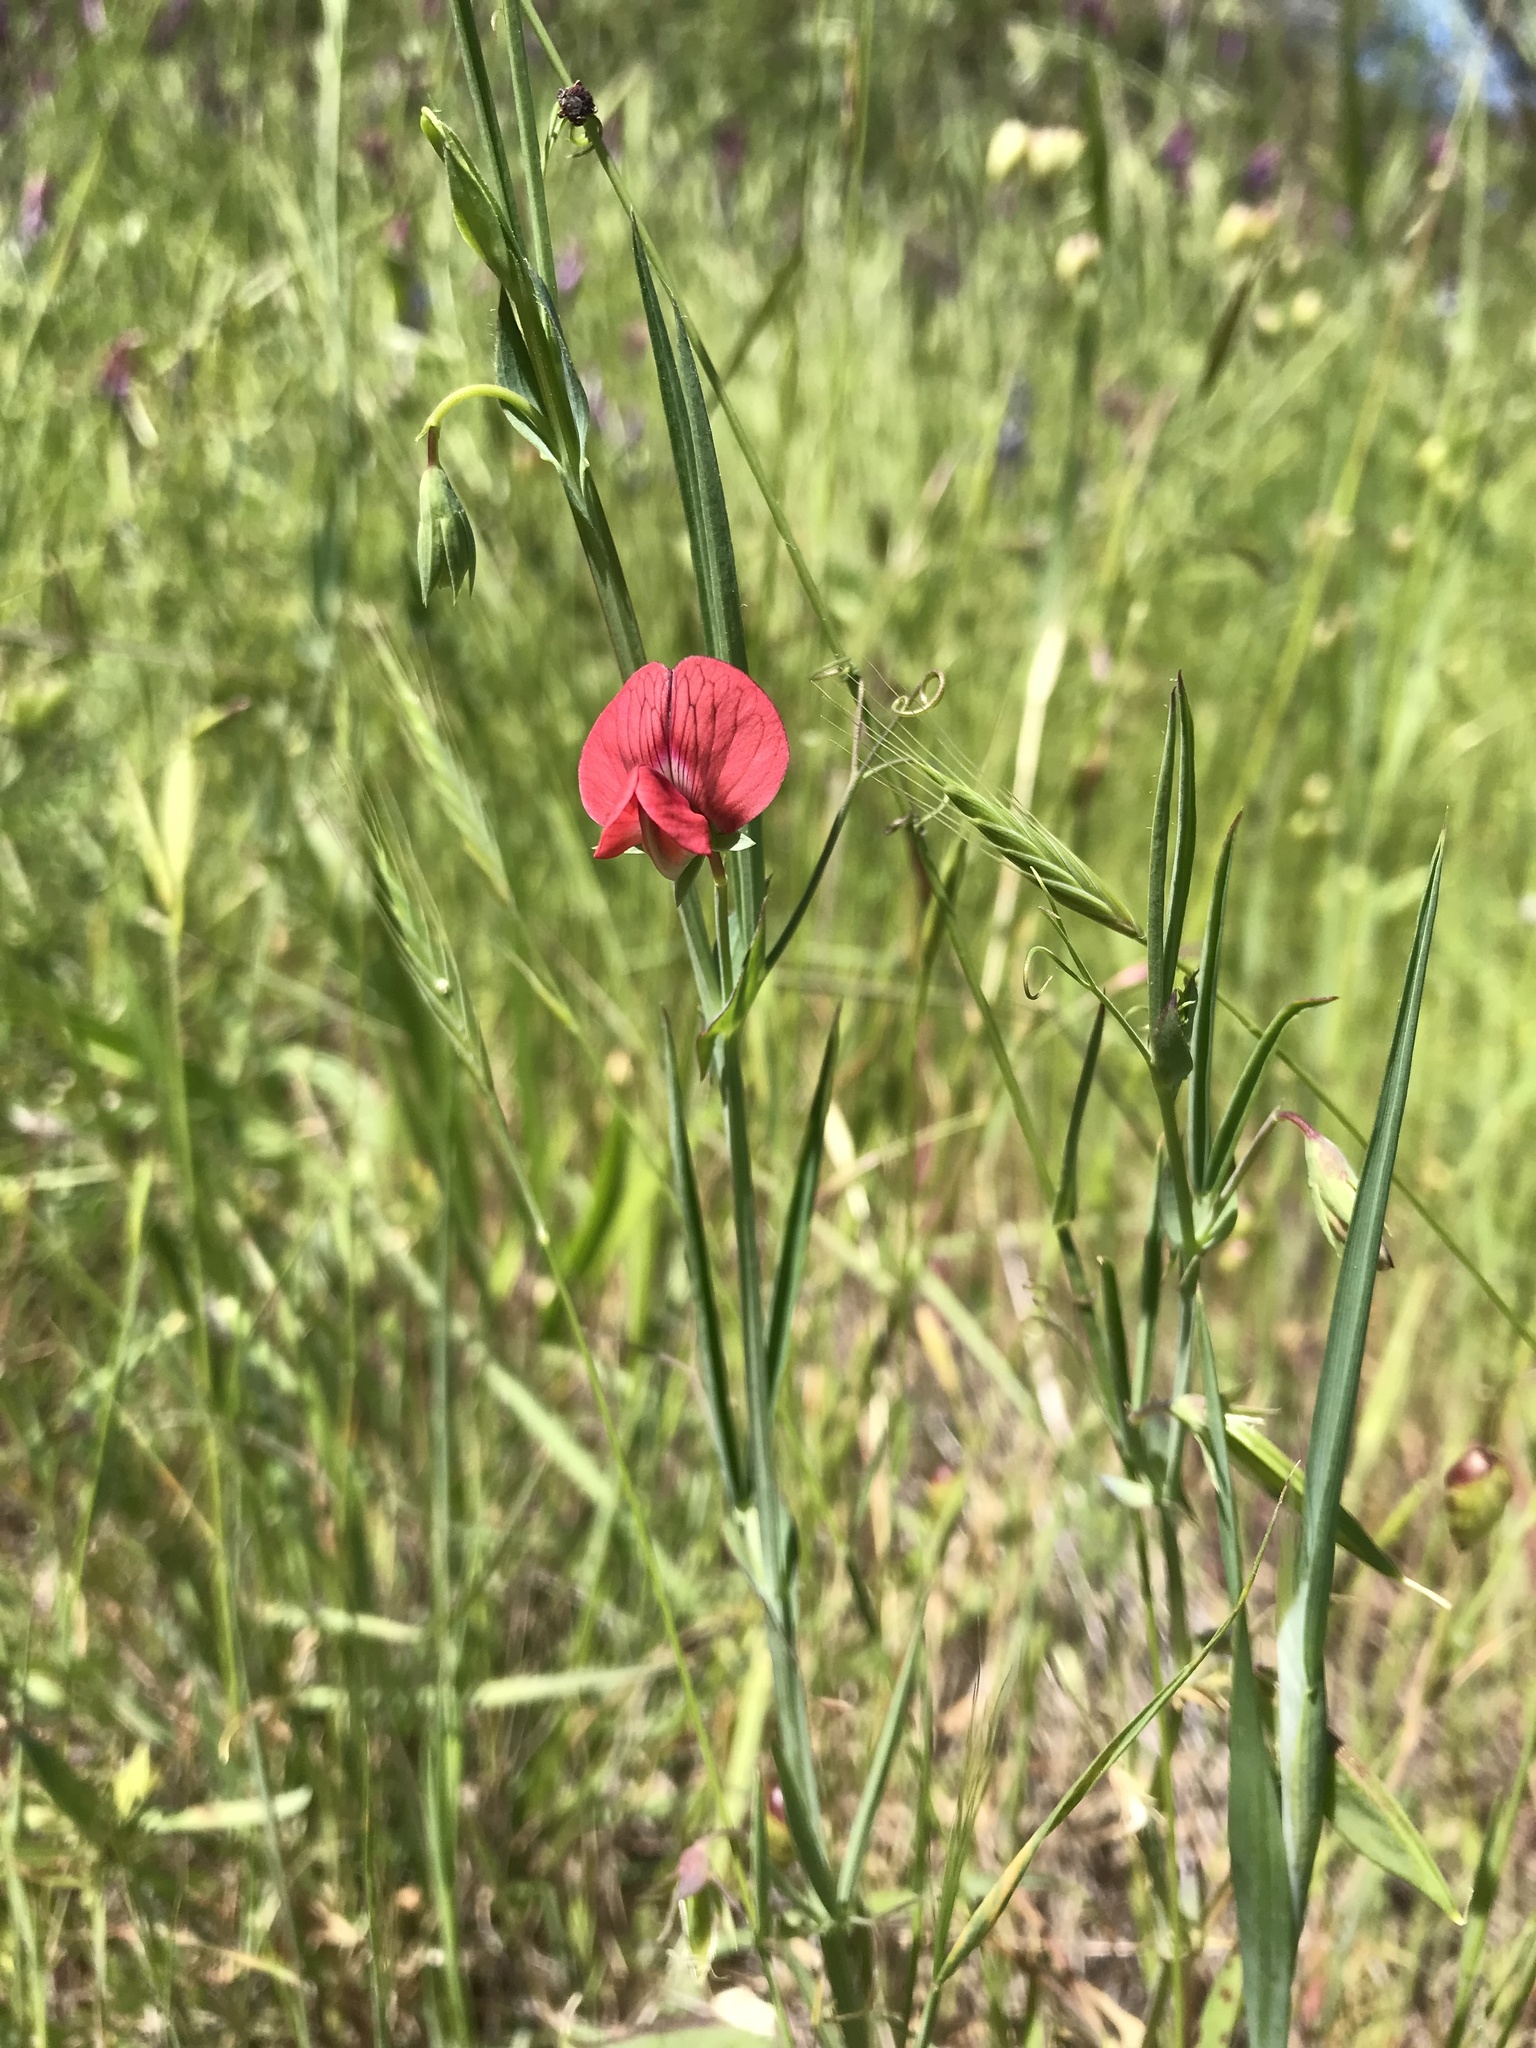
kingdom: Plantae
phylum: Tracheophyta
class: Magnoliopsida
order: Fabales
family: Fabaceae
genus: Lathyrus
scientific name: Lathyrus cicera
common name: Red vetchling
